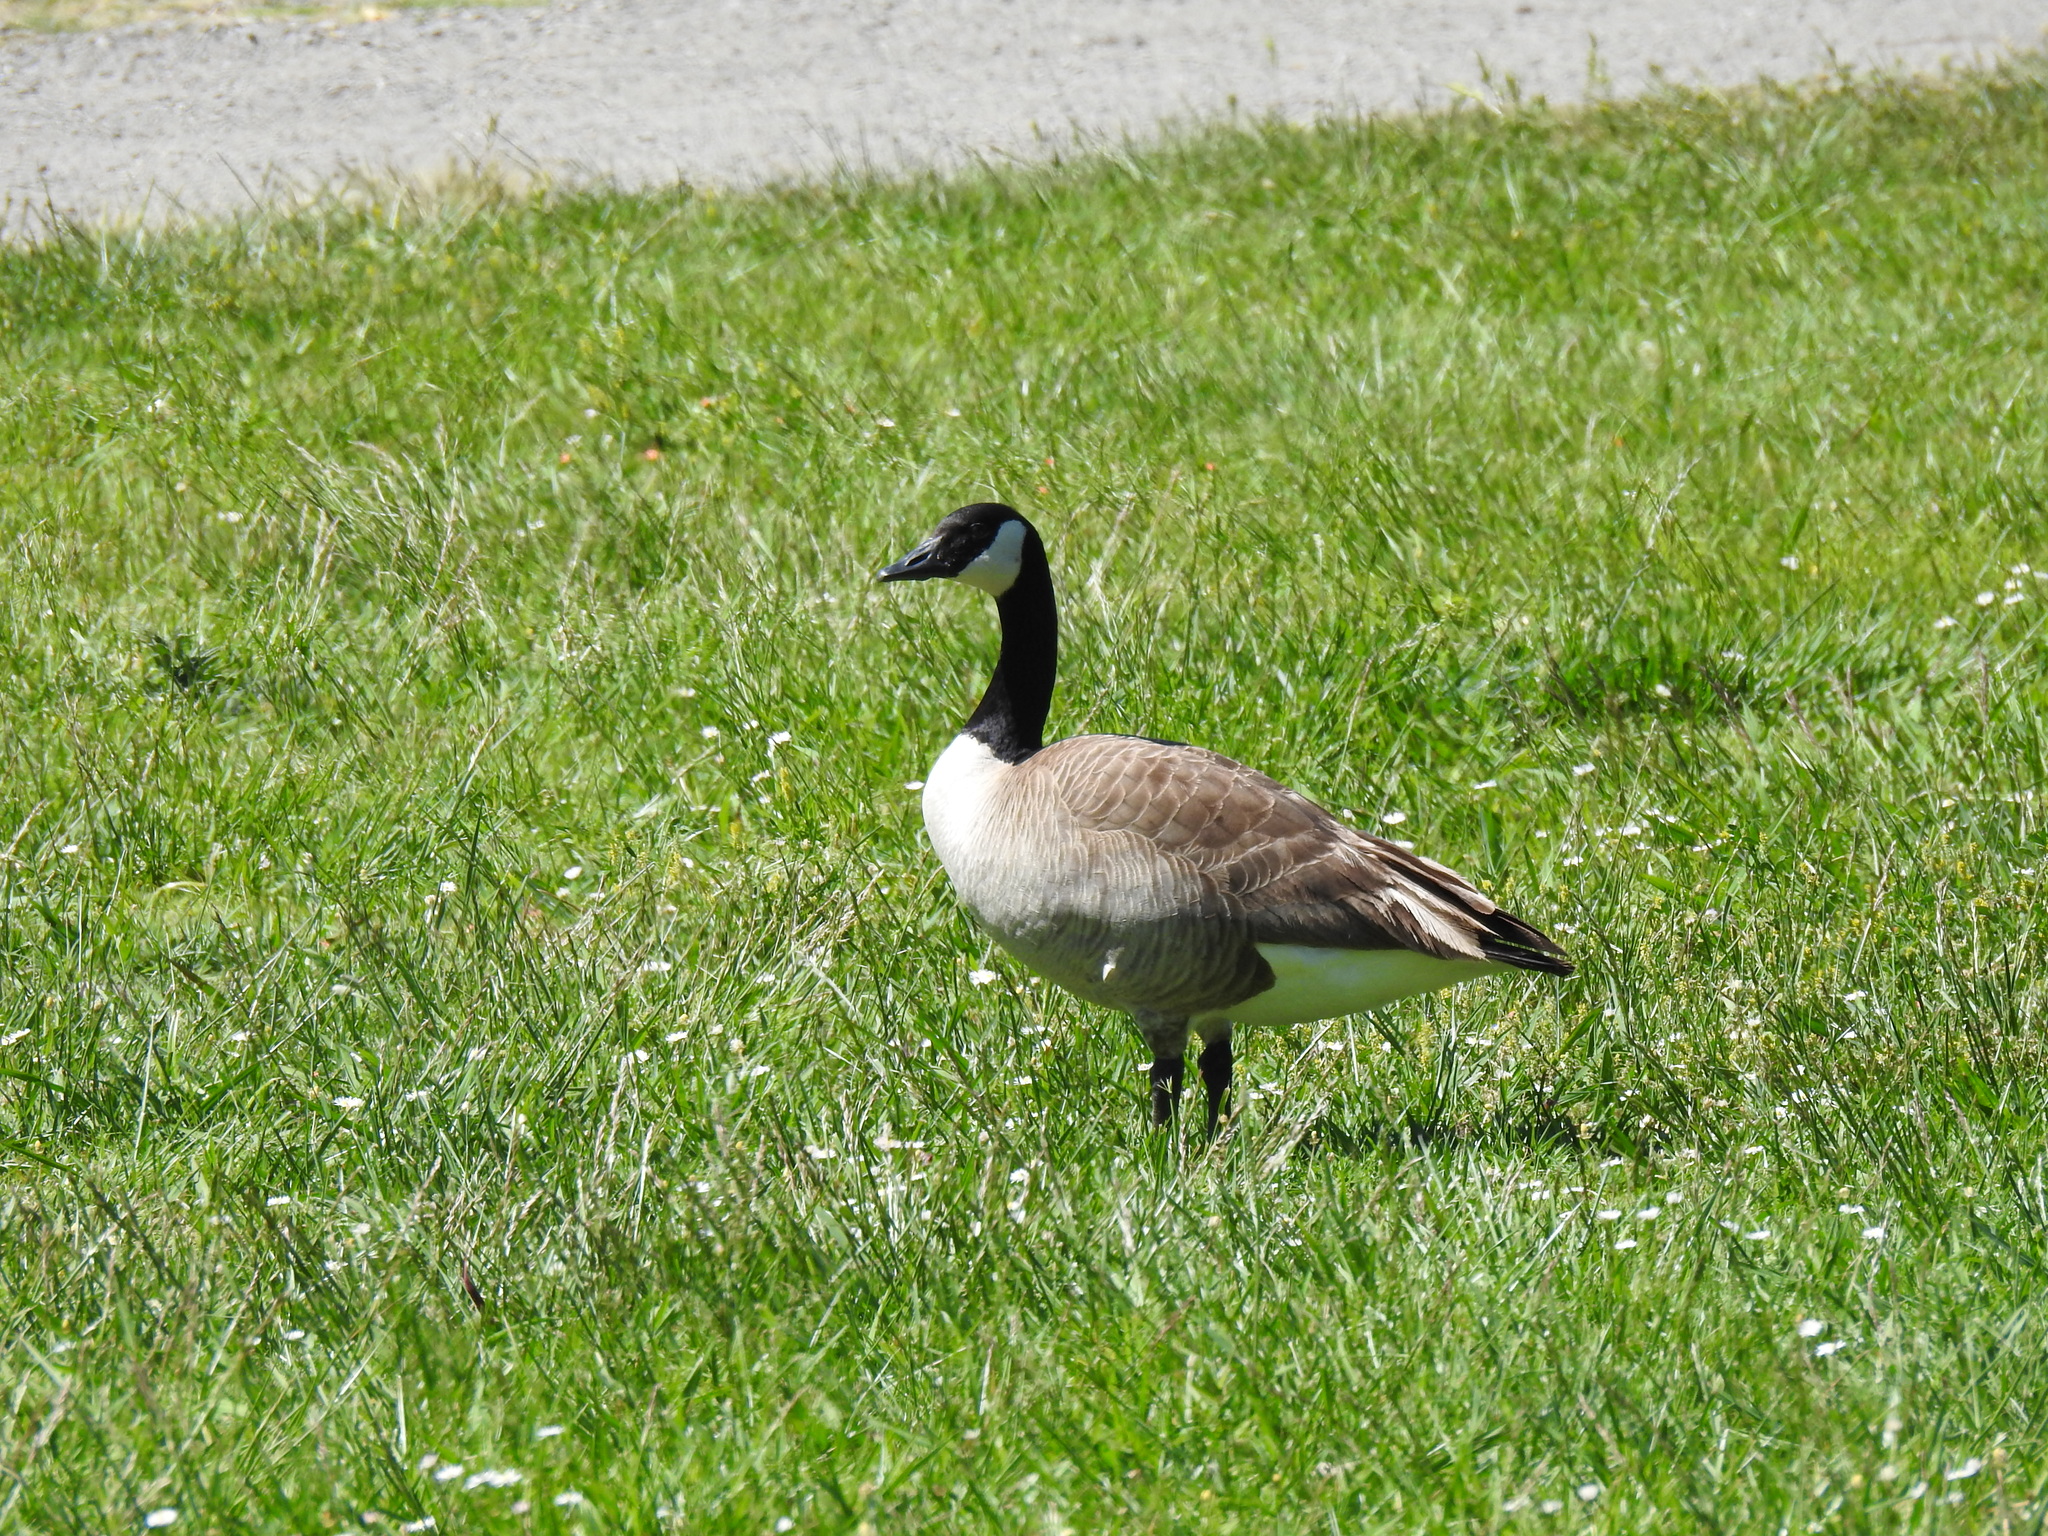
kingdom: Animalia
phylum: Chordata
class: Aves
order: Anseriformes
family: Anatidae
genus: Branta
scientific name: Branta canadensis
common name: Canada goose
